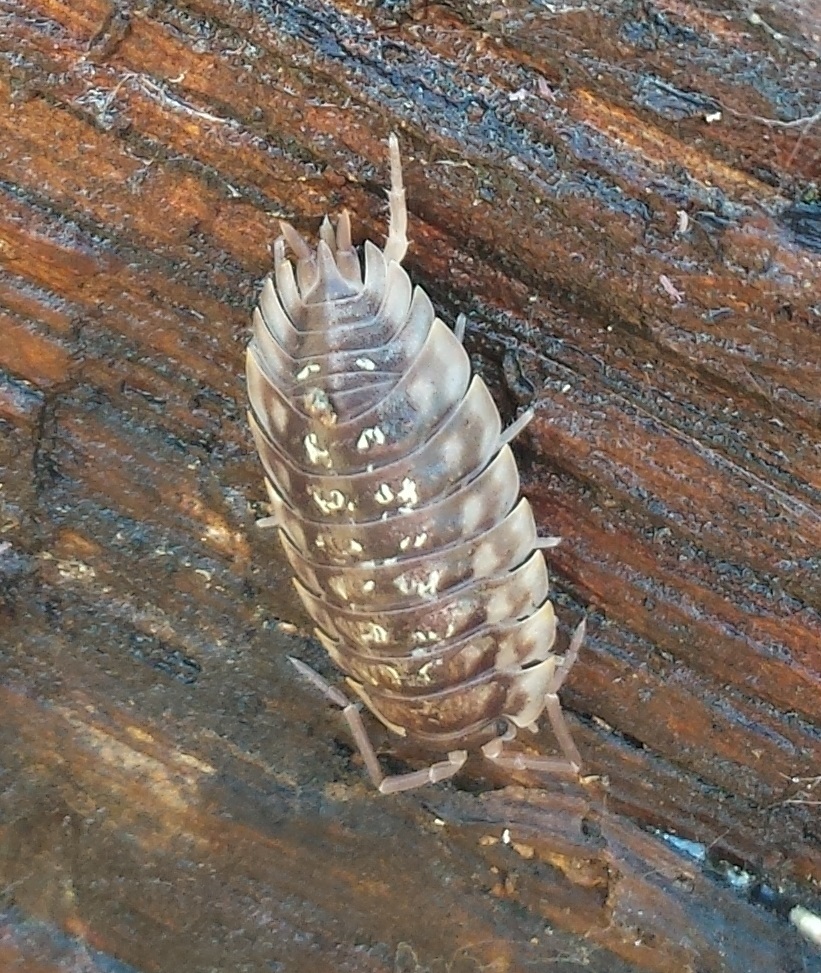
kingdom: Animalia
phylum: Arthropoda
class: Malacostraca
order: Isopoda
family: Oniscidae
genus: Oniscus
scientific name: Oniscus asellus
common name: Common shiny woodlouse
